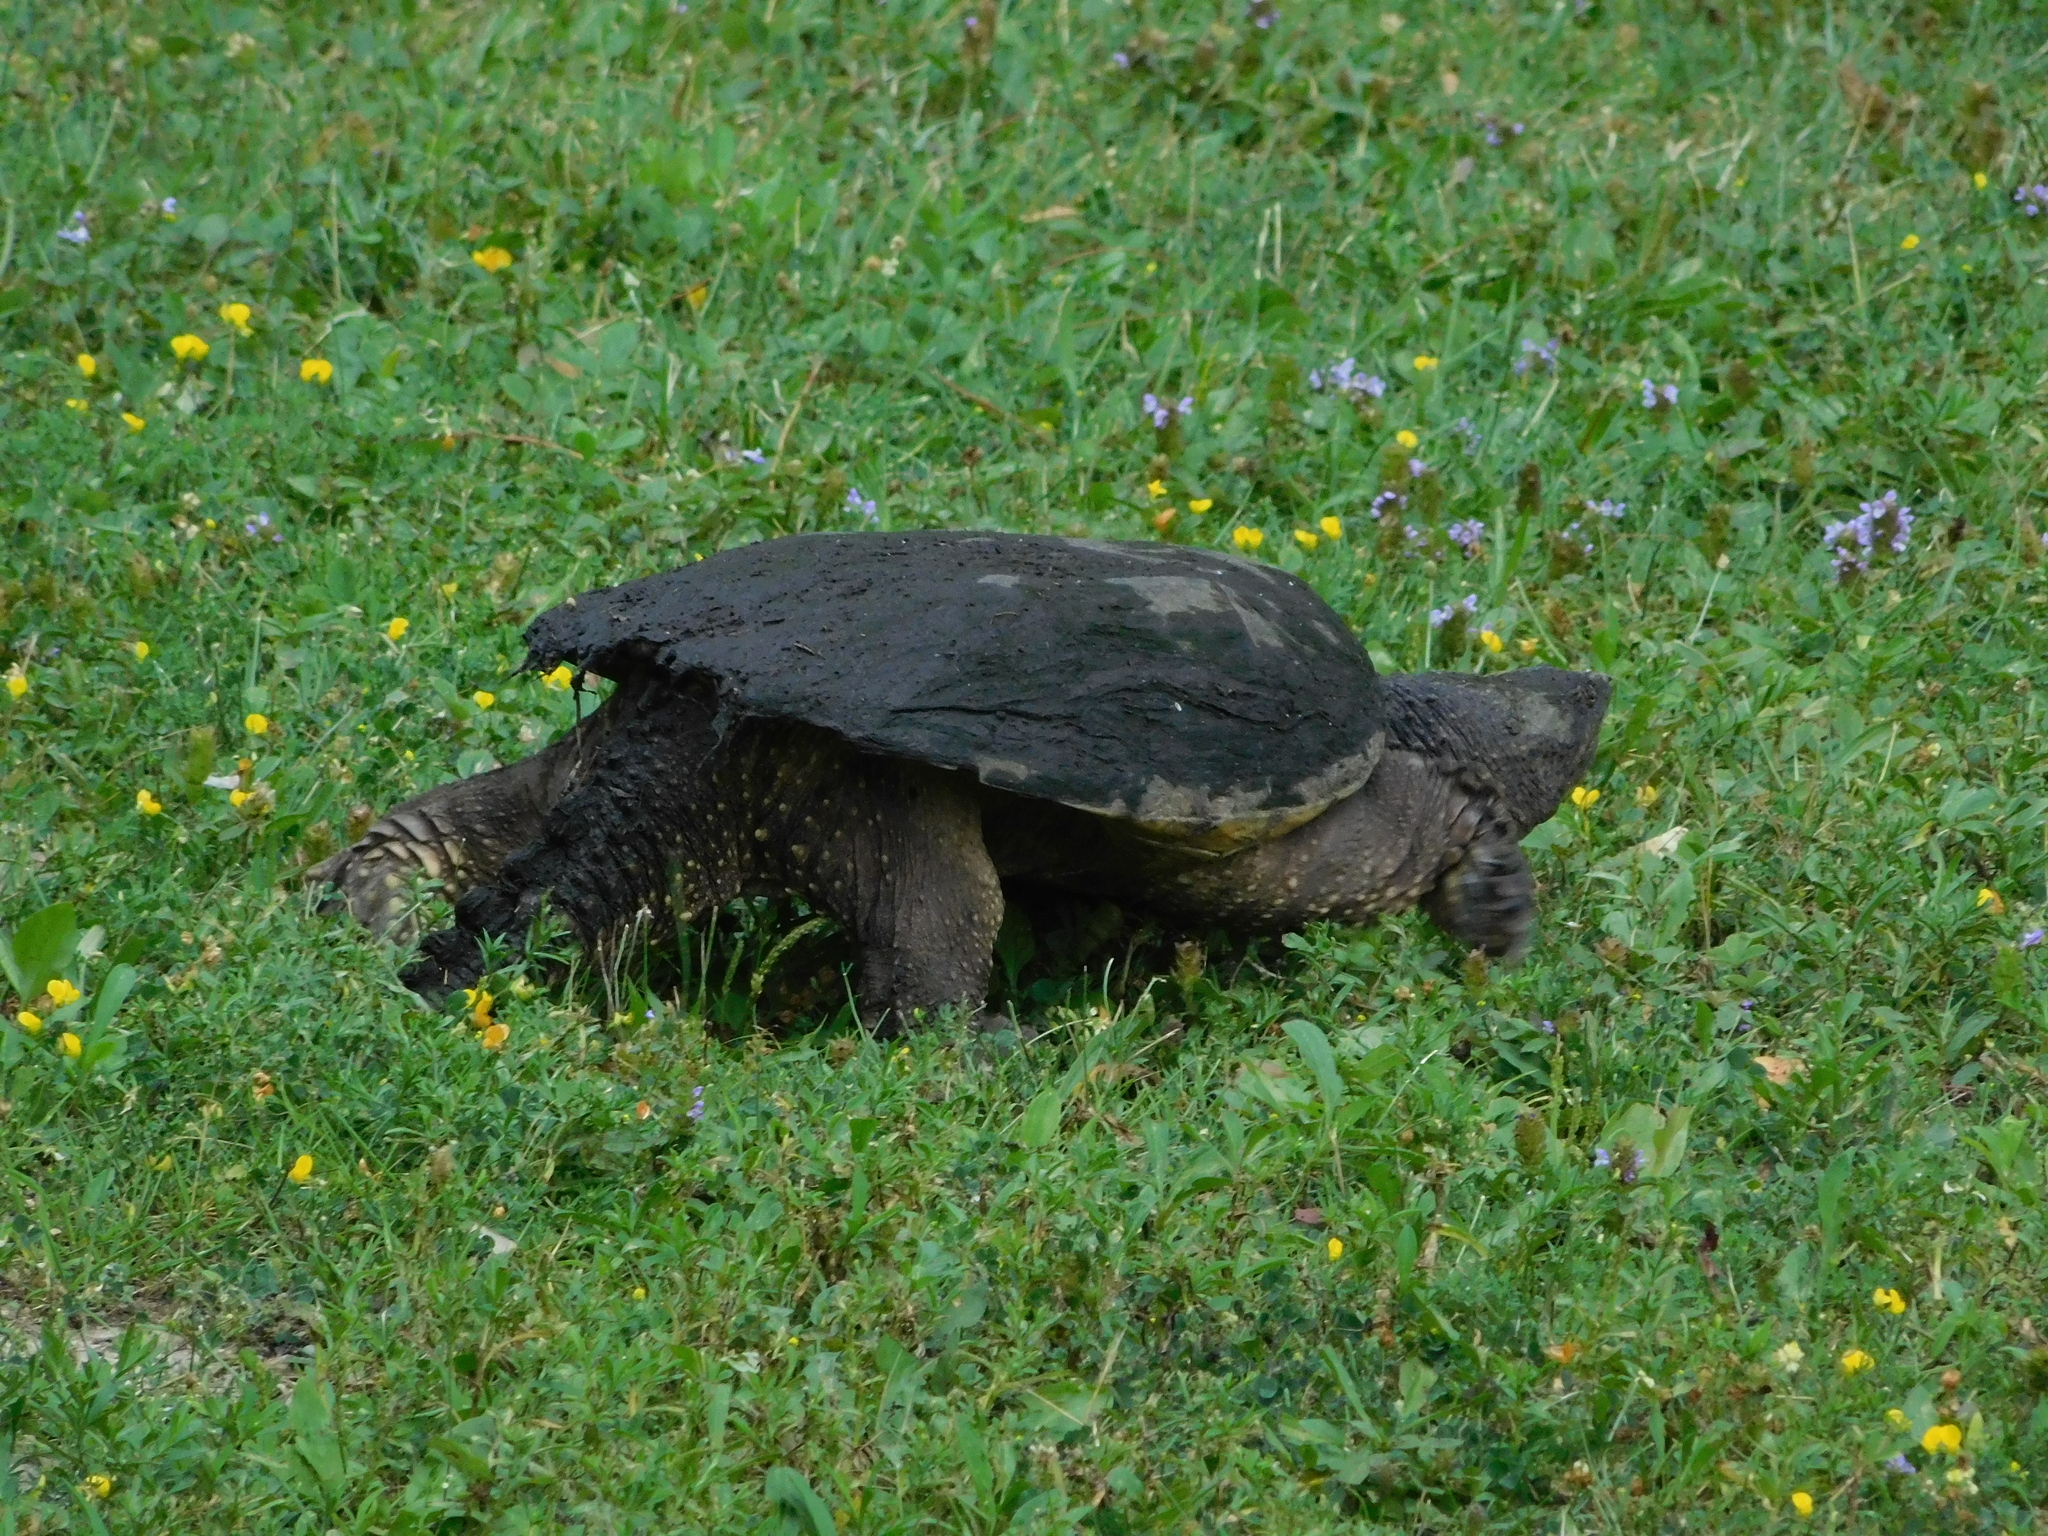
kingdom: Animalia
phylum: Chordata
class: Testudines
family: Chelydridae
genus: Chelydra
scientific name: Chelydra serpentina
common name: Common snapping turtle
